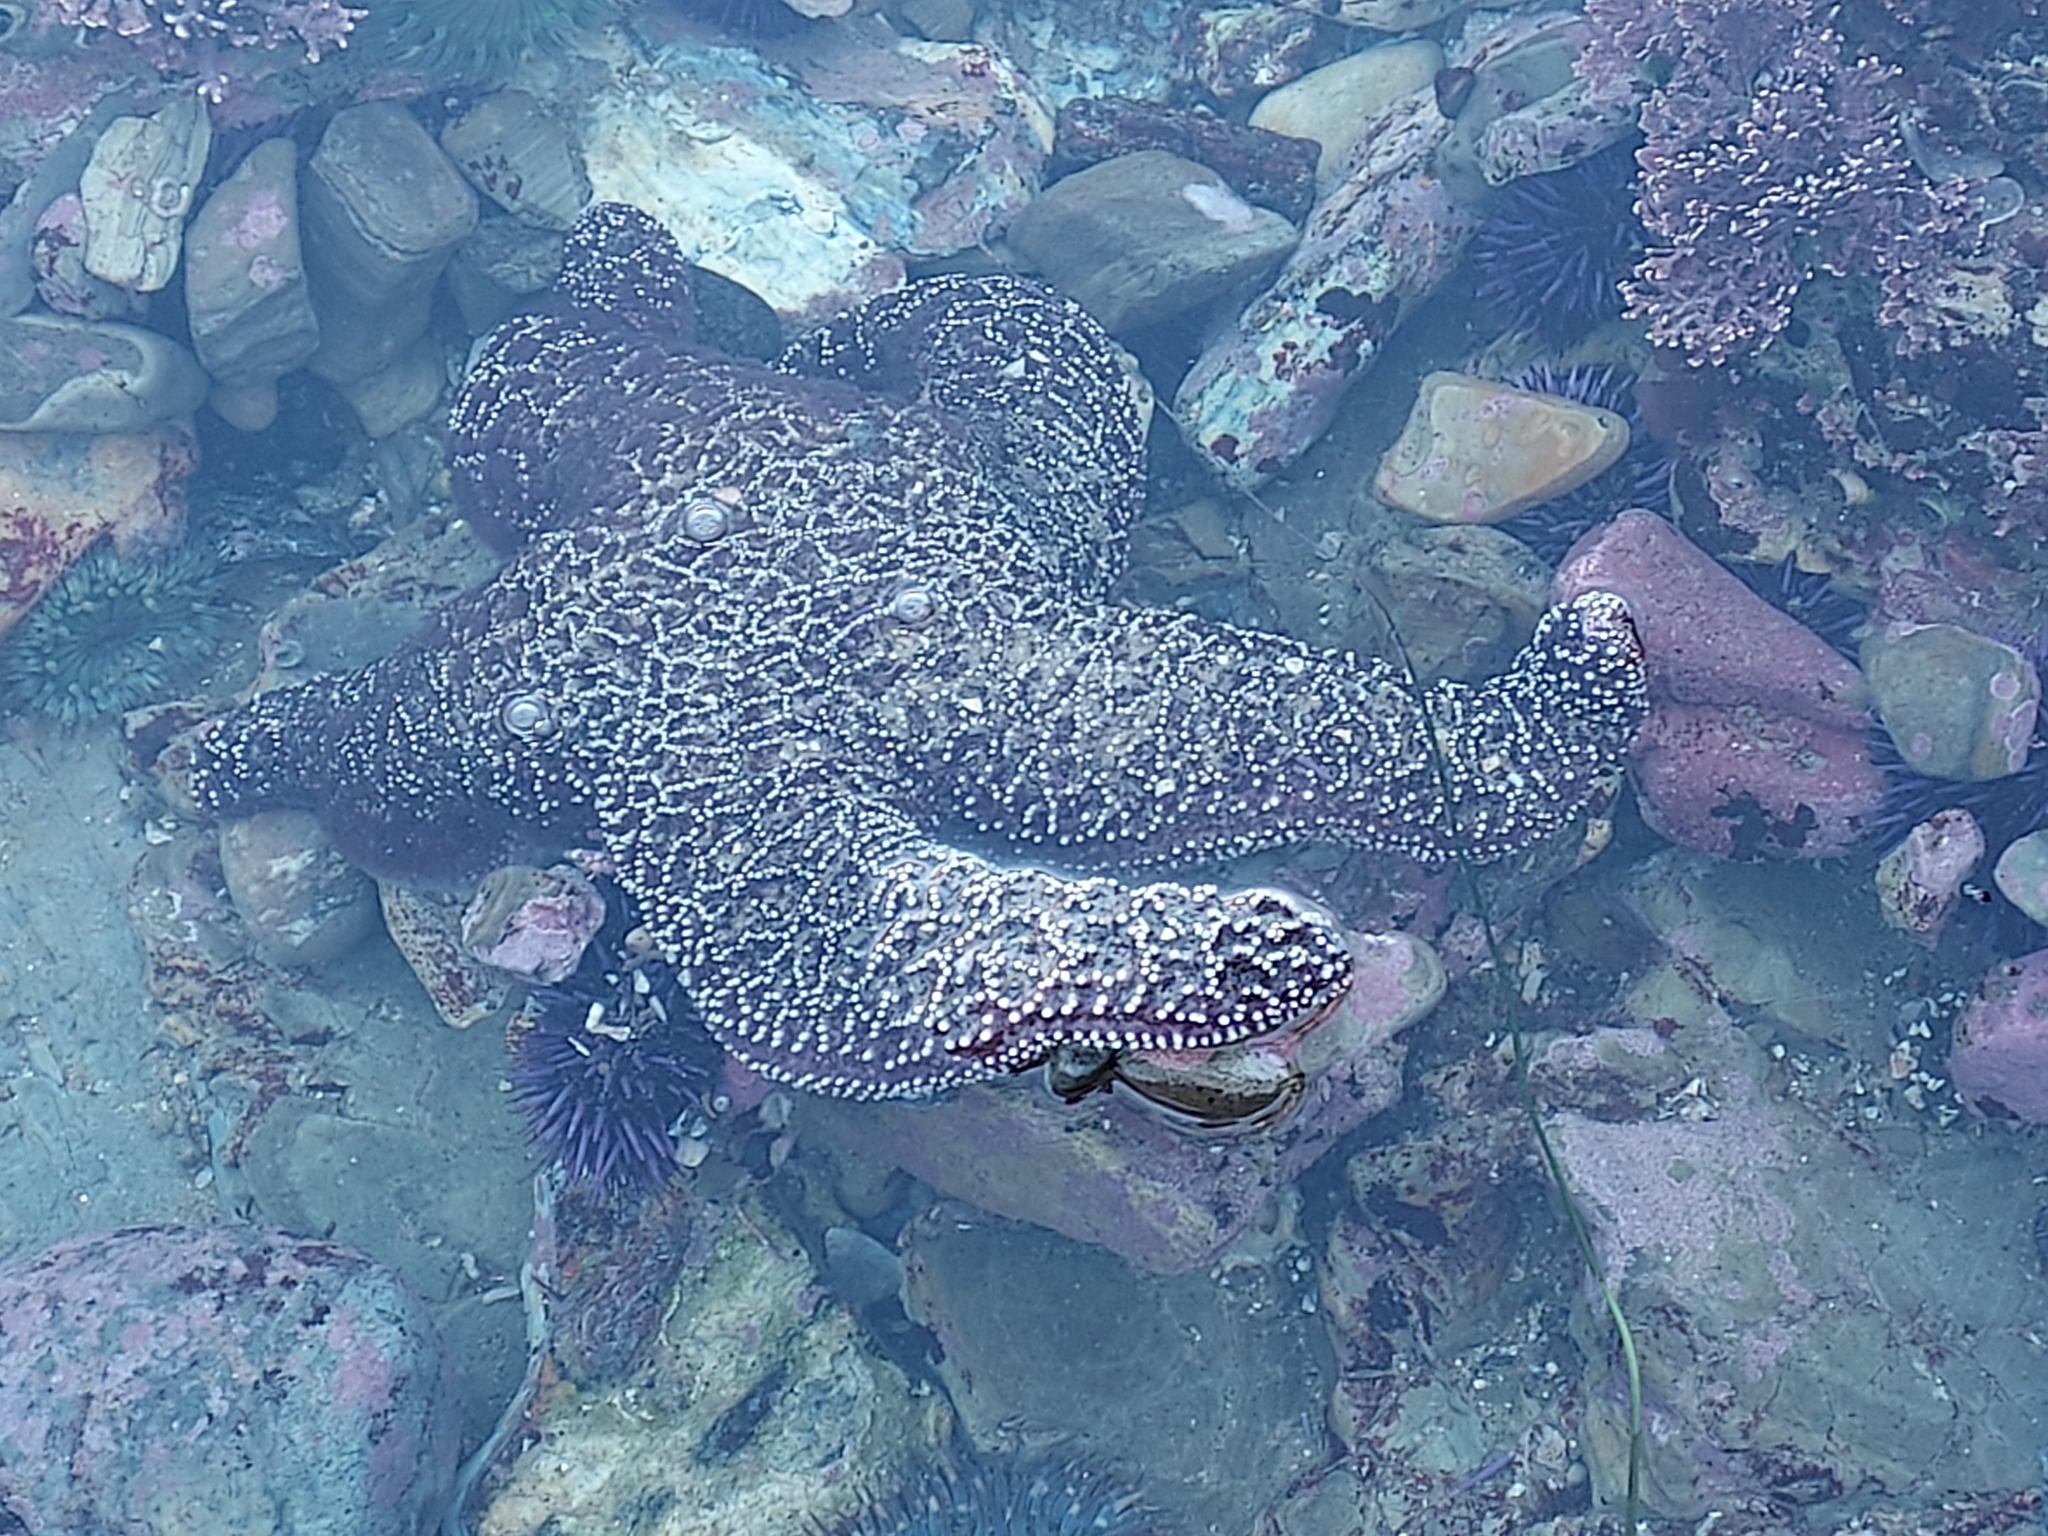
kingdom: Animalia
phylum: Echinodermata
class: Asteroidea
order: Forcipulatida
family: Asteriidae
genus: Pisaster
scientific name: Pisaster ochraceus
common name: Ochre stars
